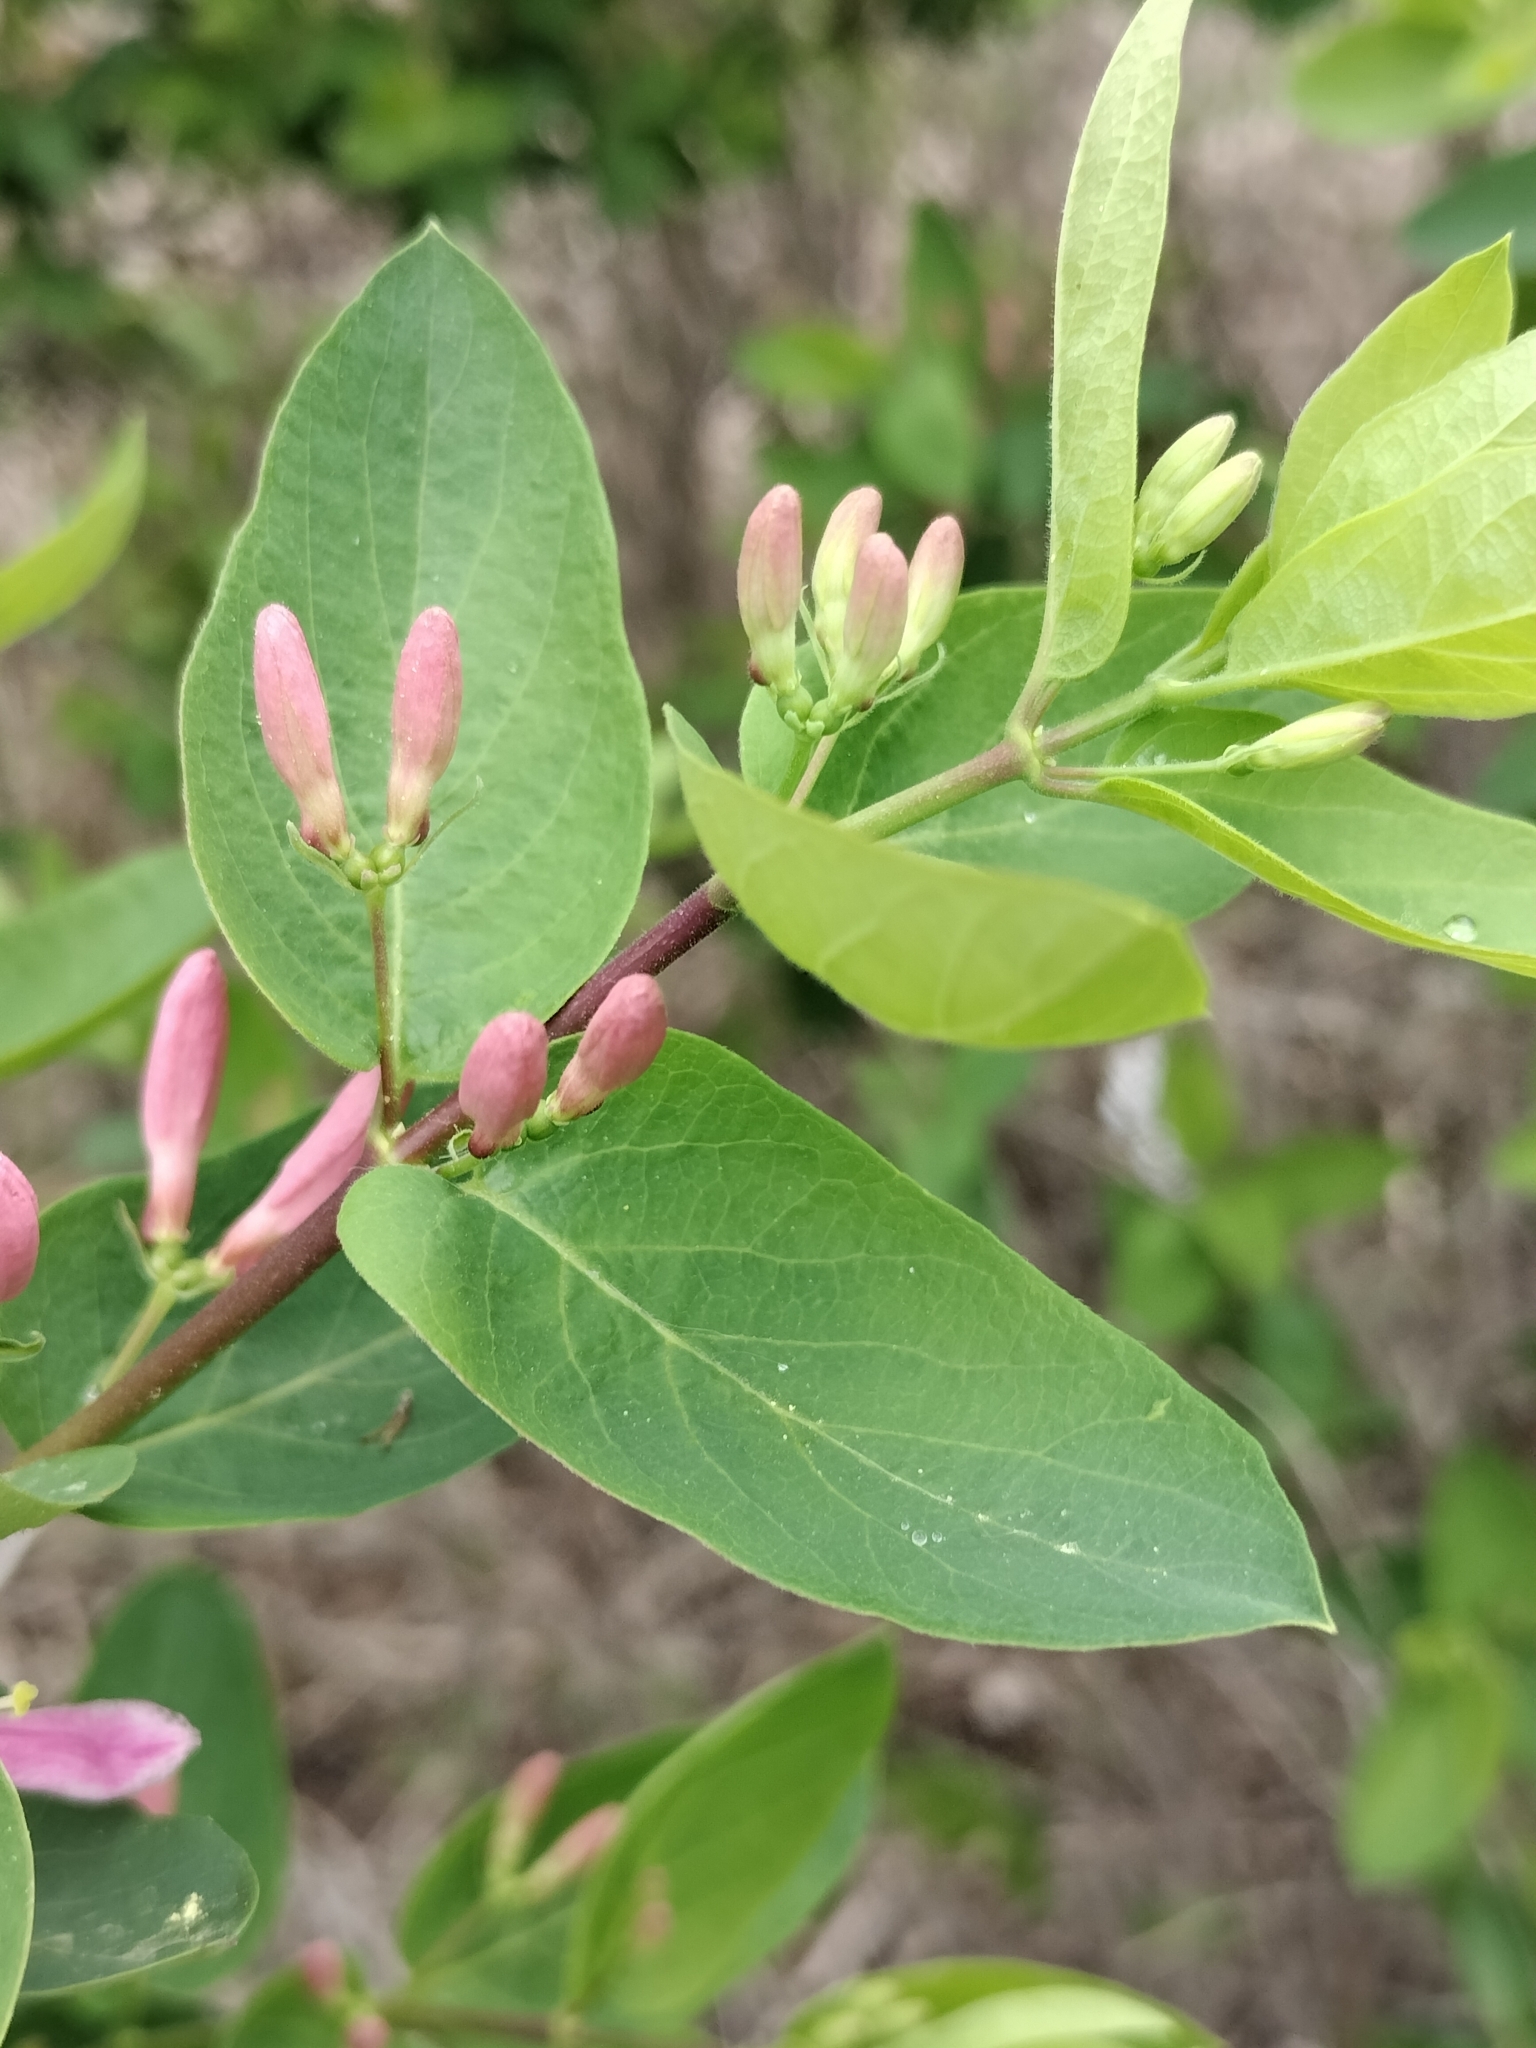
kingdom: Plantae
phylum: Tracheophyta
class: Magnoliopsida
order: Dipsacales
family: Caprifoliaceae
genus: Lonicera
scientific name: Lonicera bella
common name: Bell's honeysuckle
